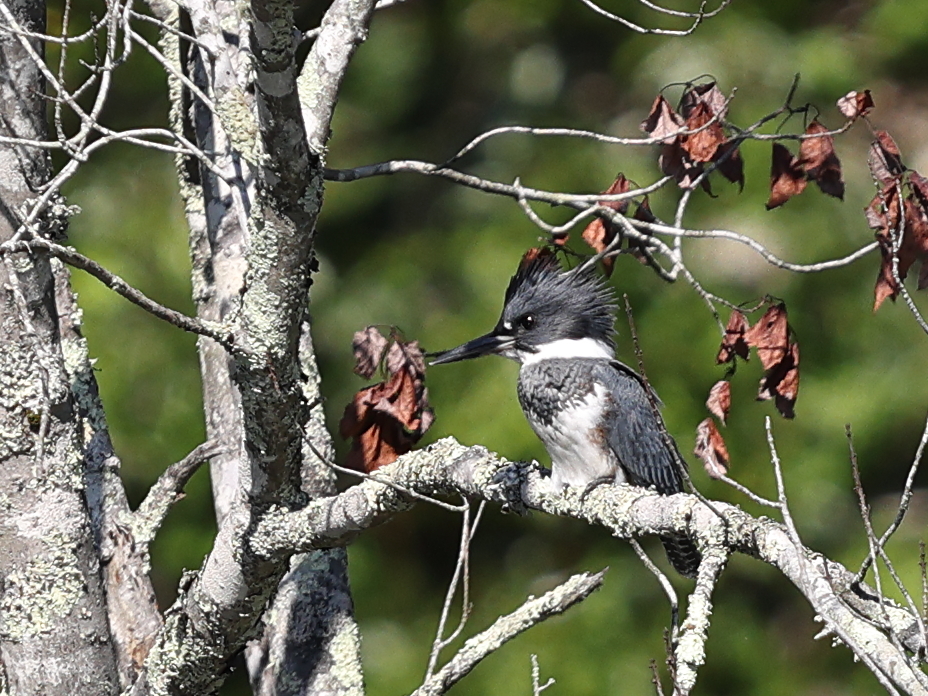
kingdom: Animalia
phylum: Chordata
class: Aves
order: Coraciiformes
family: Alcedinidae
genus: Megaceryle
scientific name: Megaceryle alcyon
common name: Belted kingfisher
